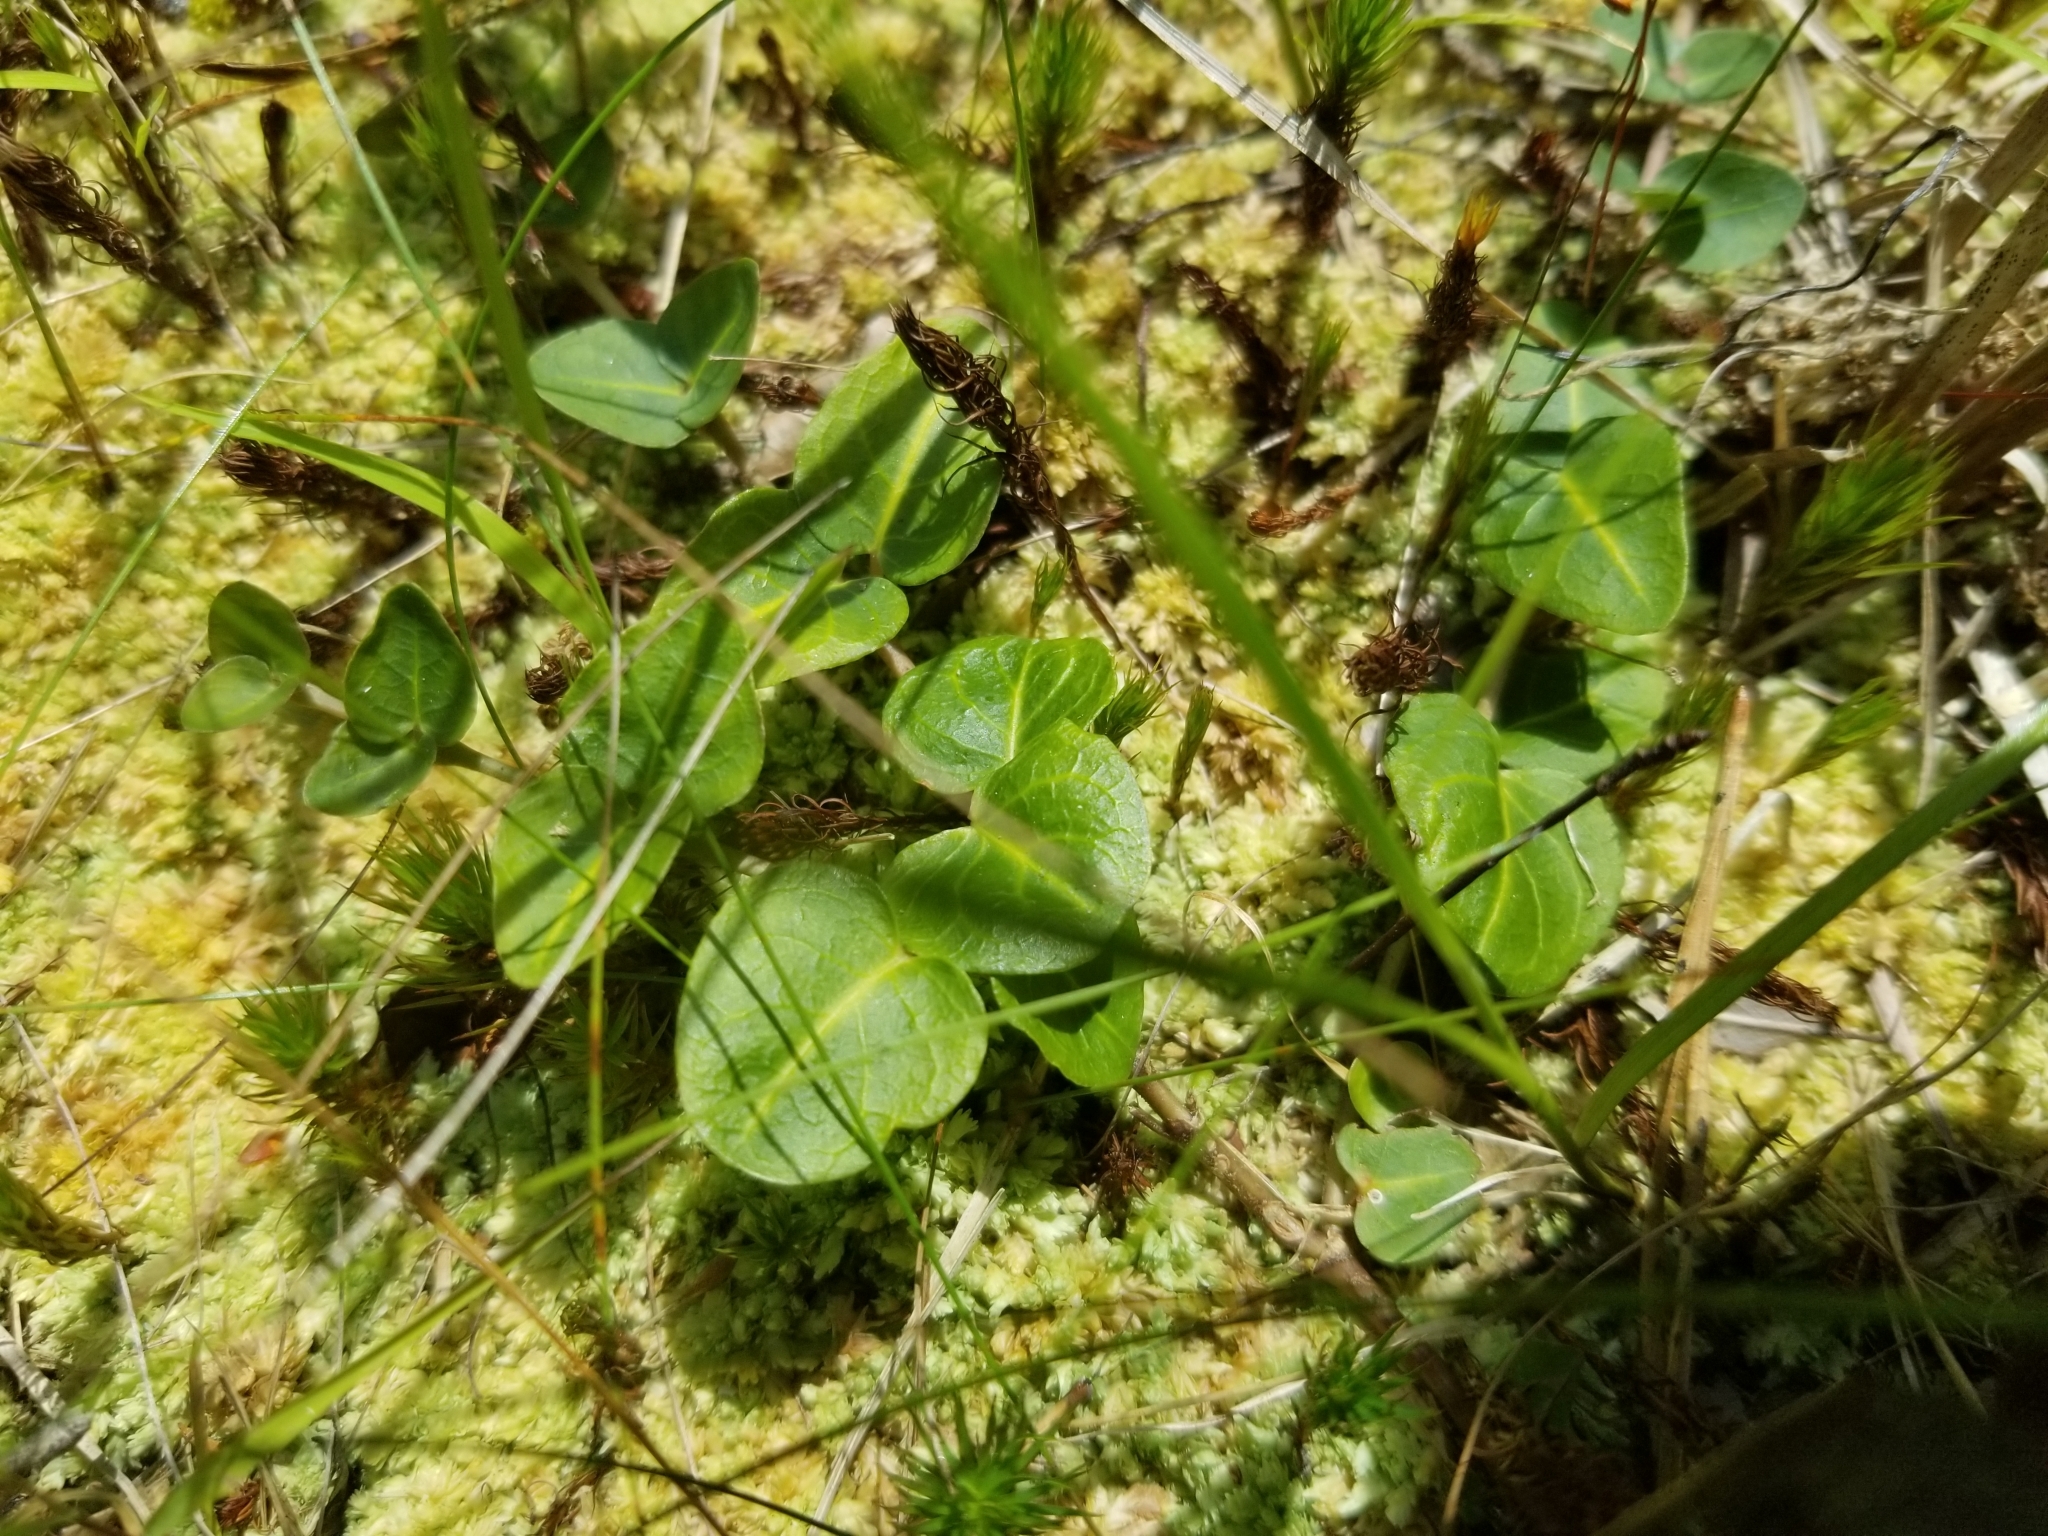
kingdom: Plantae
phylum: Tracheophyta
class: Magnoliopsida
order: Gentianales
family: Rubiaceae
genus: Mitchella
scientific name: Mitchella repens
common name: Partridge-berry
